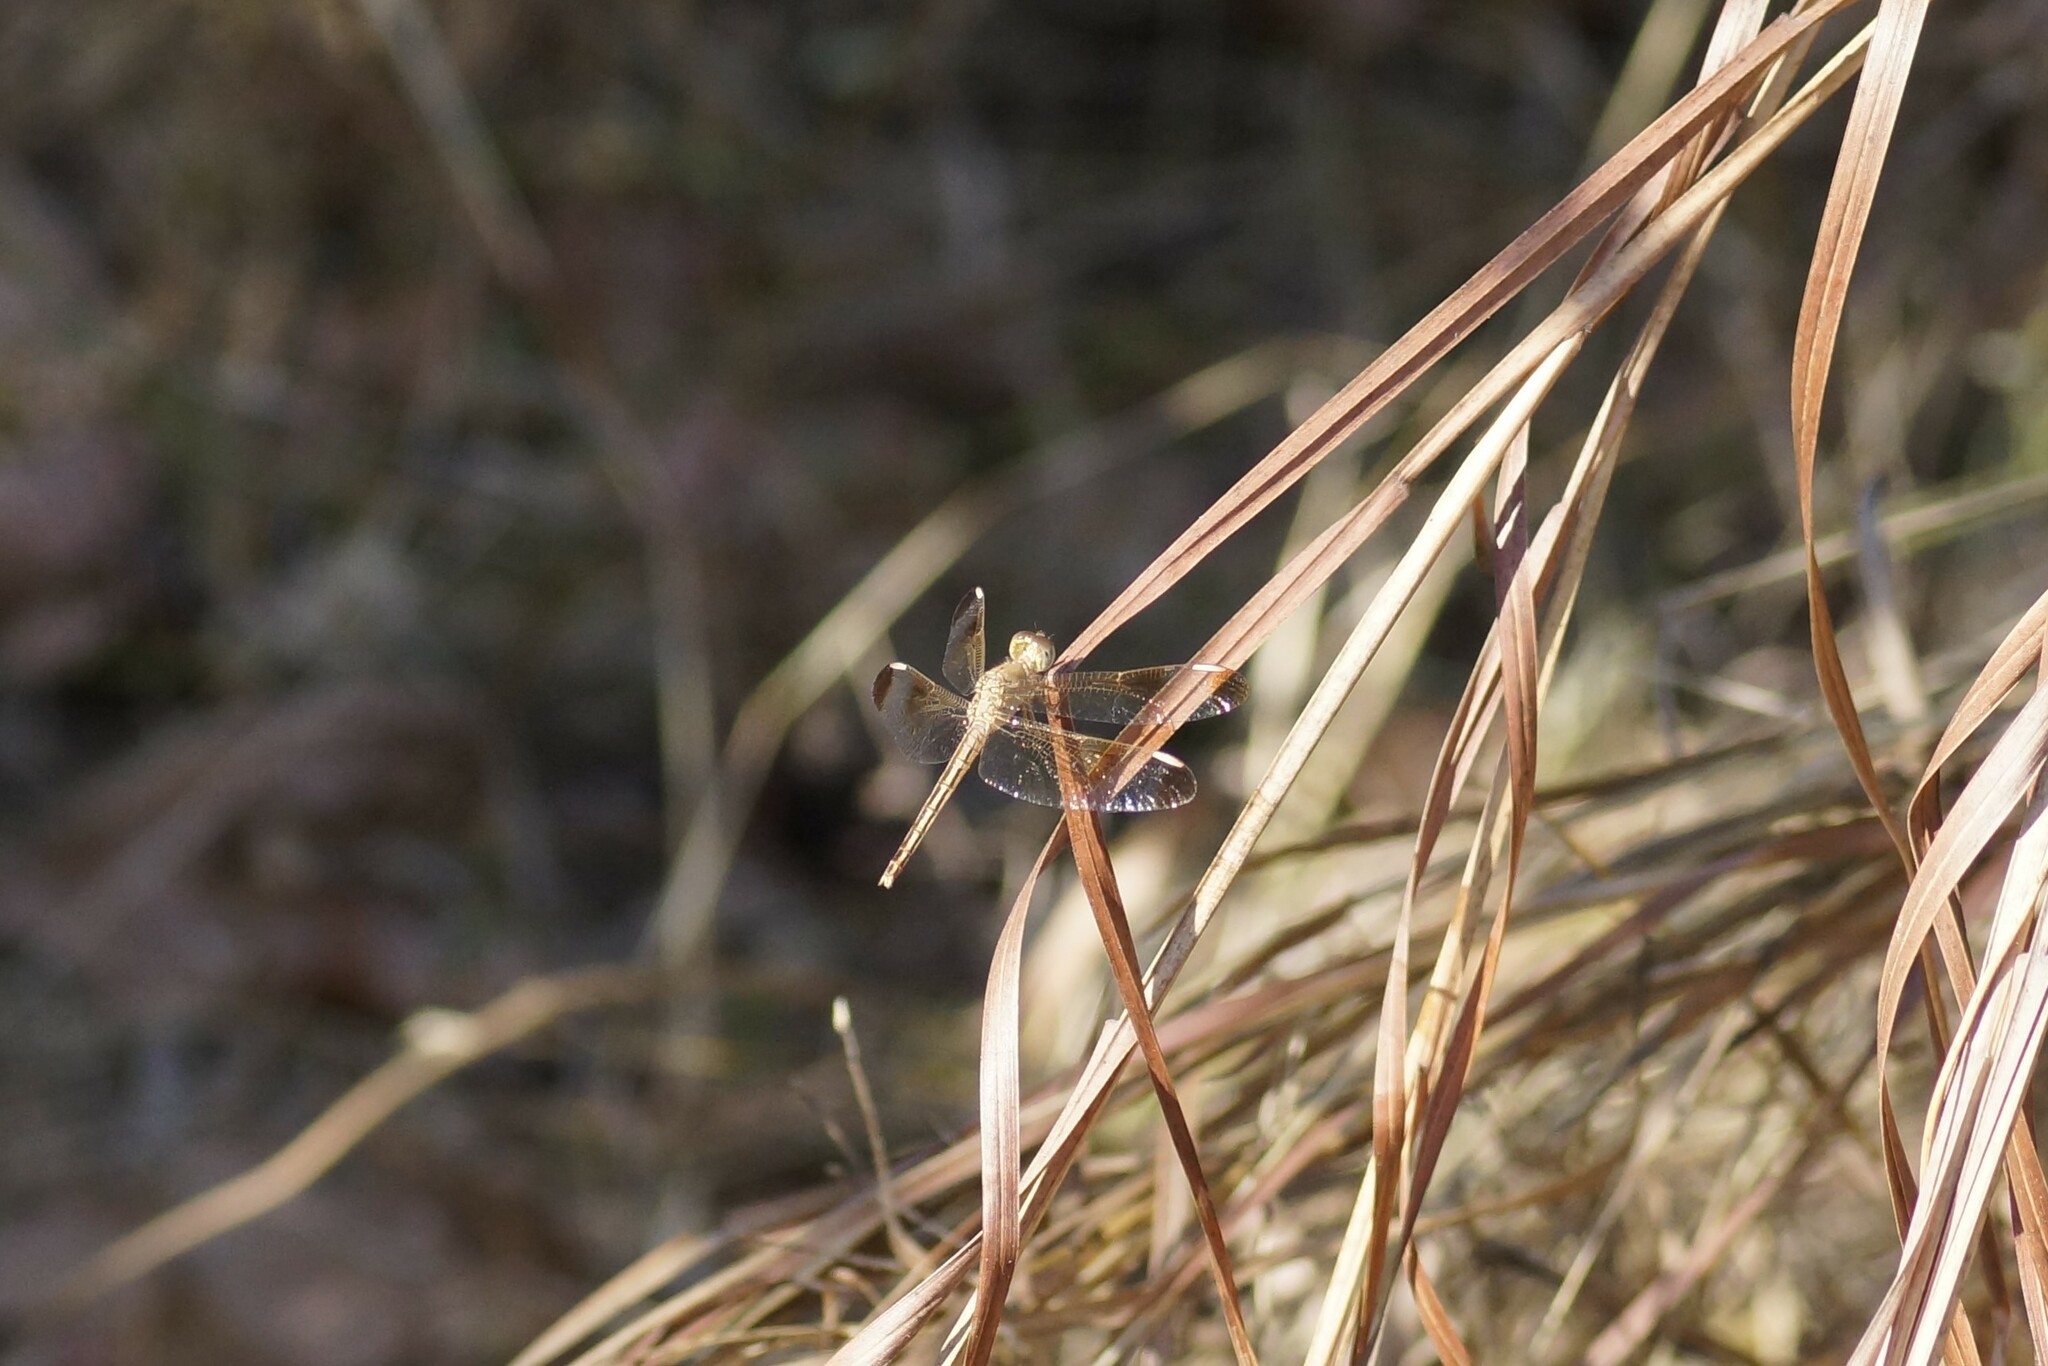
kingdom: Animalia
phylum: Arthropoda
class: Insecta
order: Odonata
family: Libellulidae
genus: Neurothemis
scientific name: Neurothemis stigmatizans
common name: Painted grasshawk
